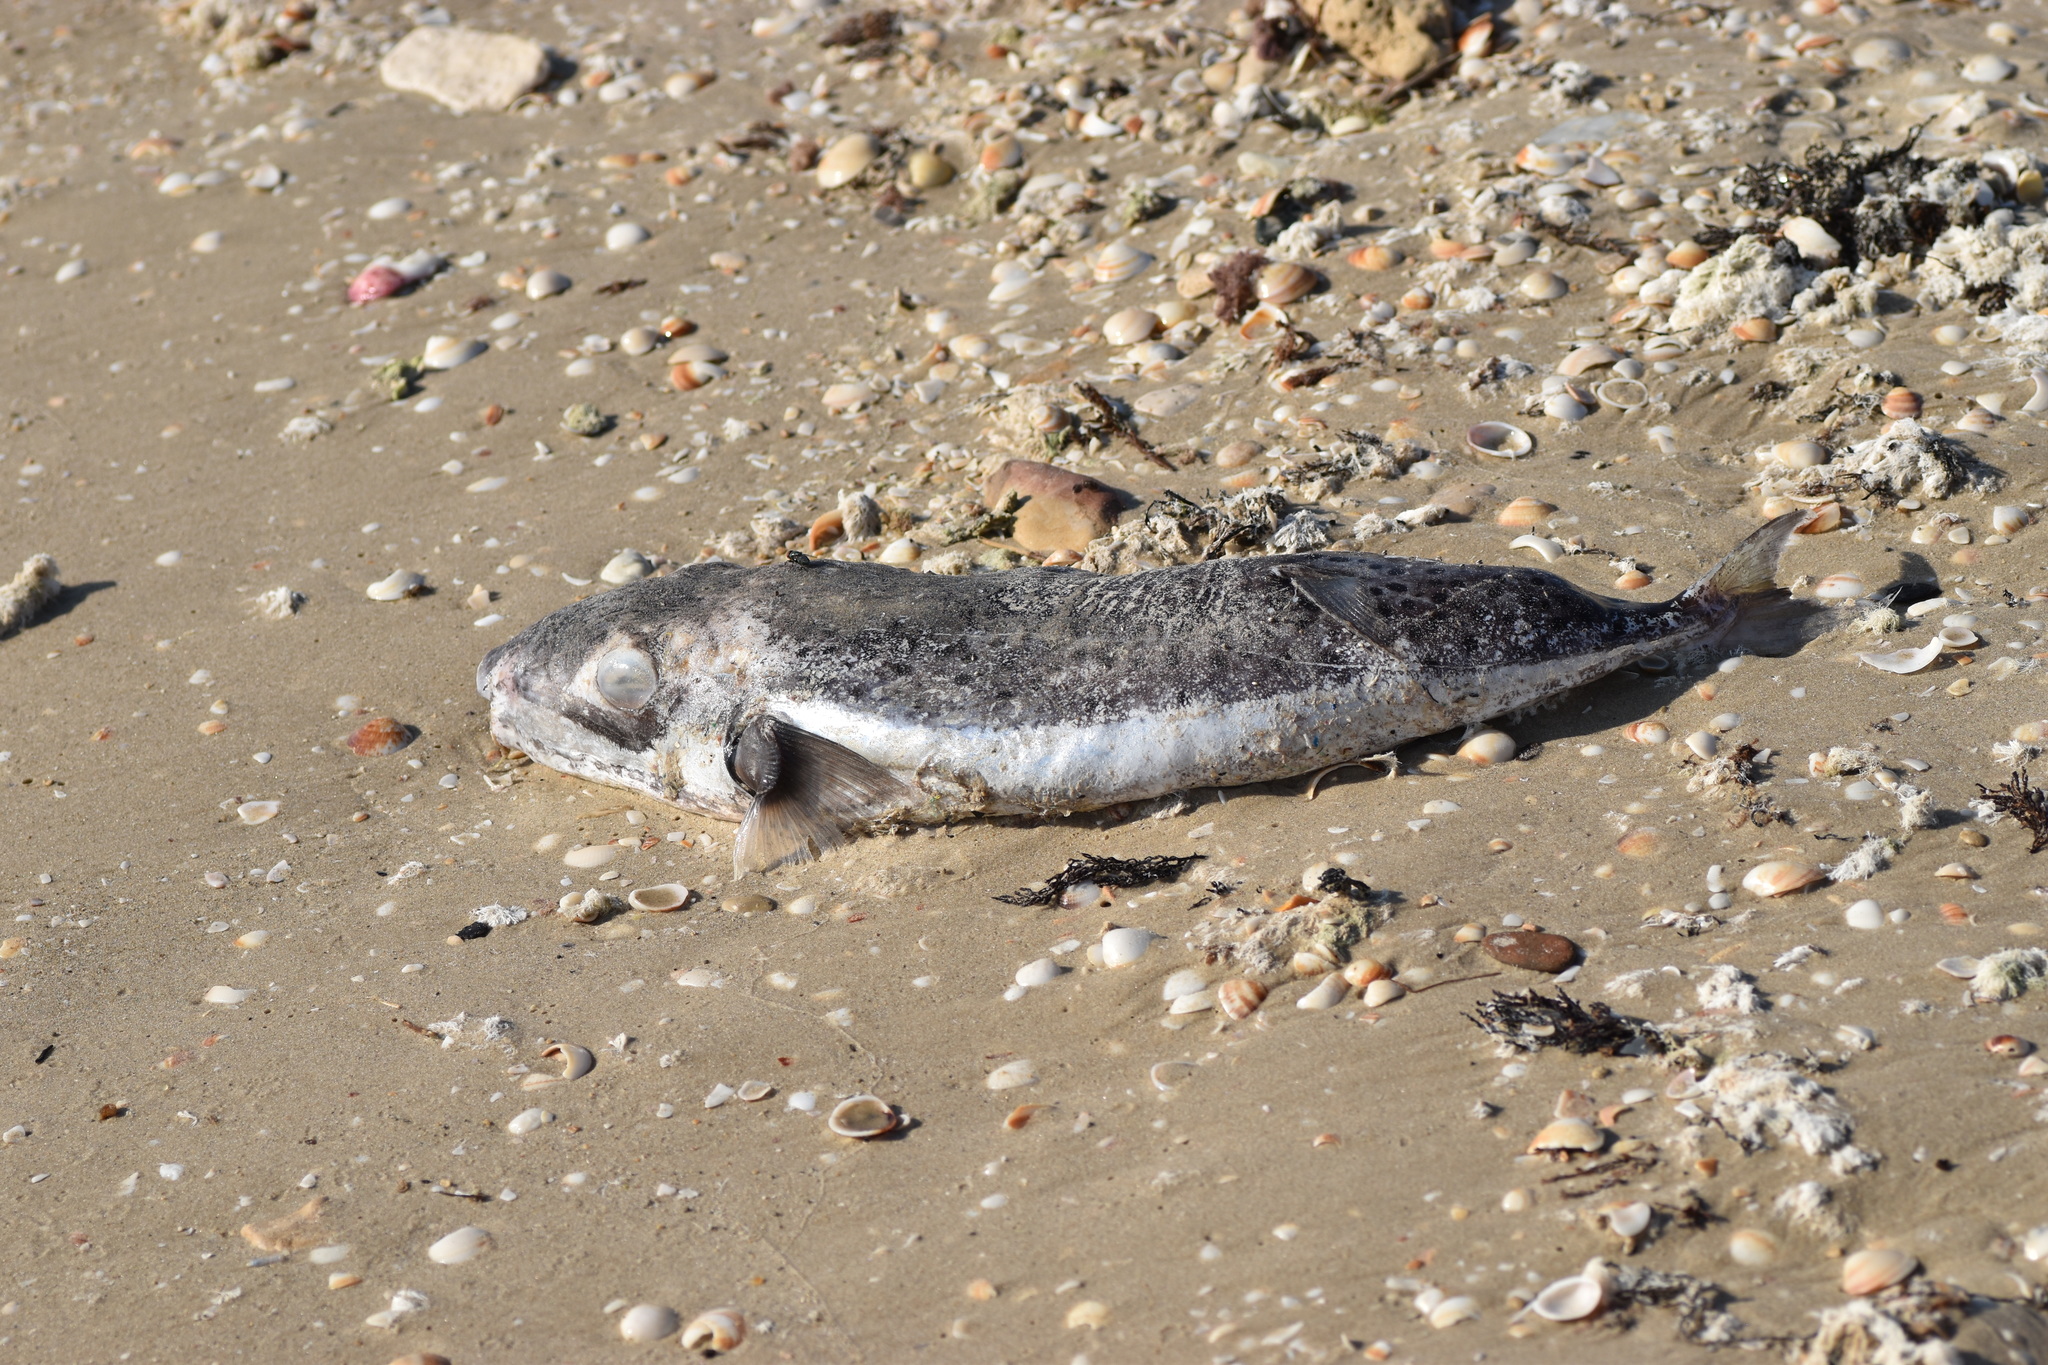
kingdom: Animalia
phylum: Chordata
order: Tetraodontiformes
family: Tetraodontidae
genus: Lagocephalus
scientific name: Lagocephalus sceleratus
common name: Silverstripe blaasop
